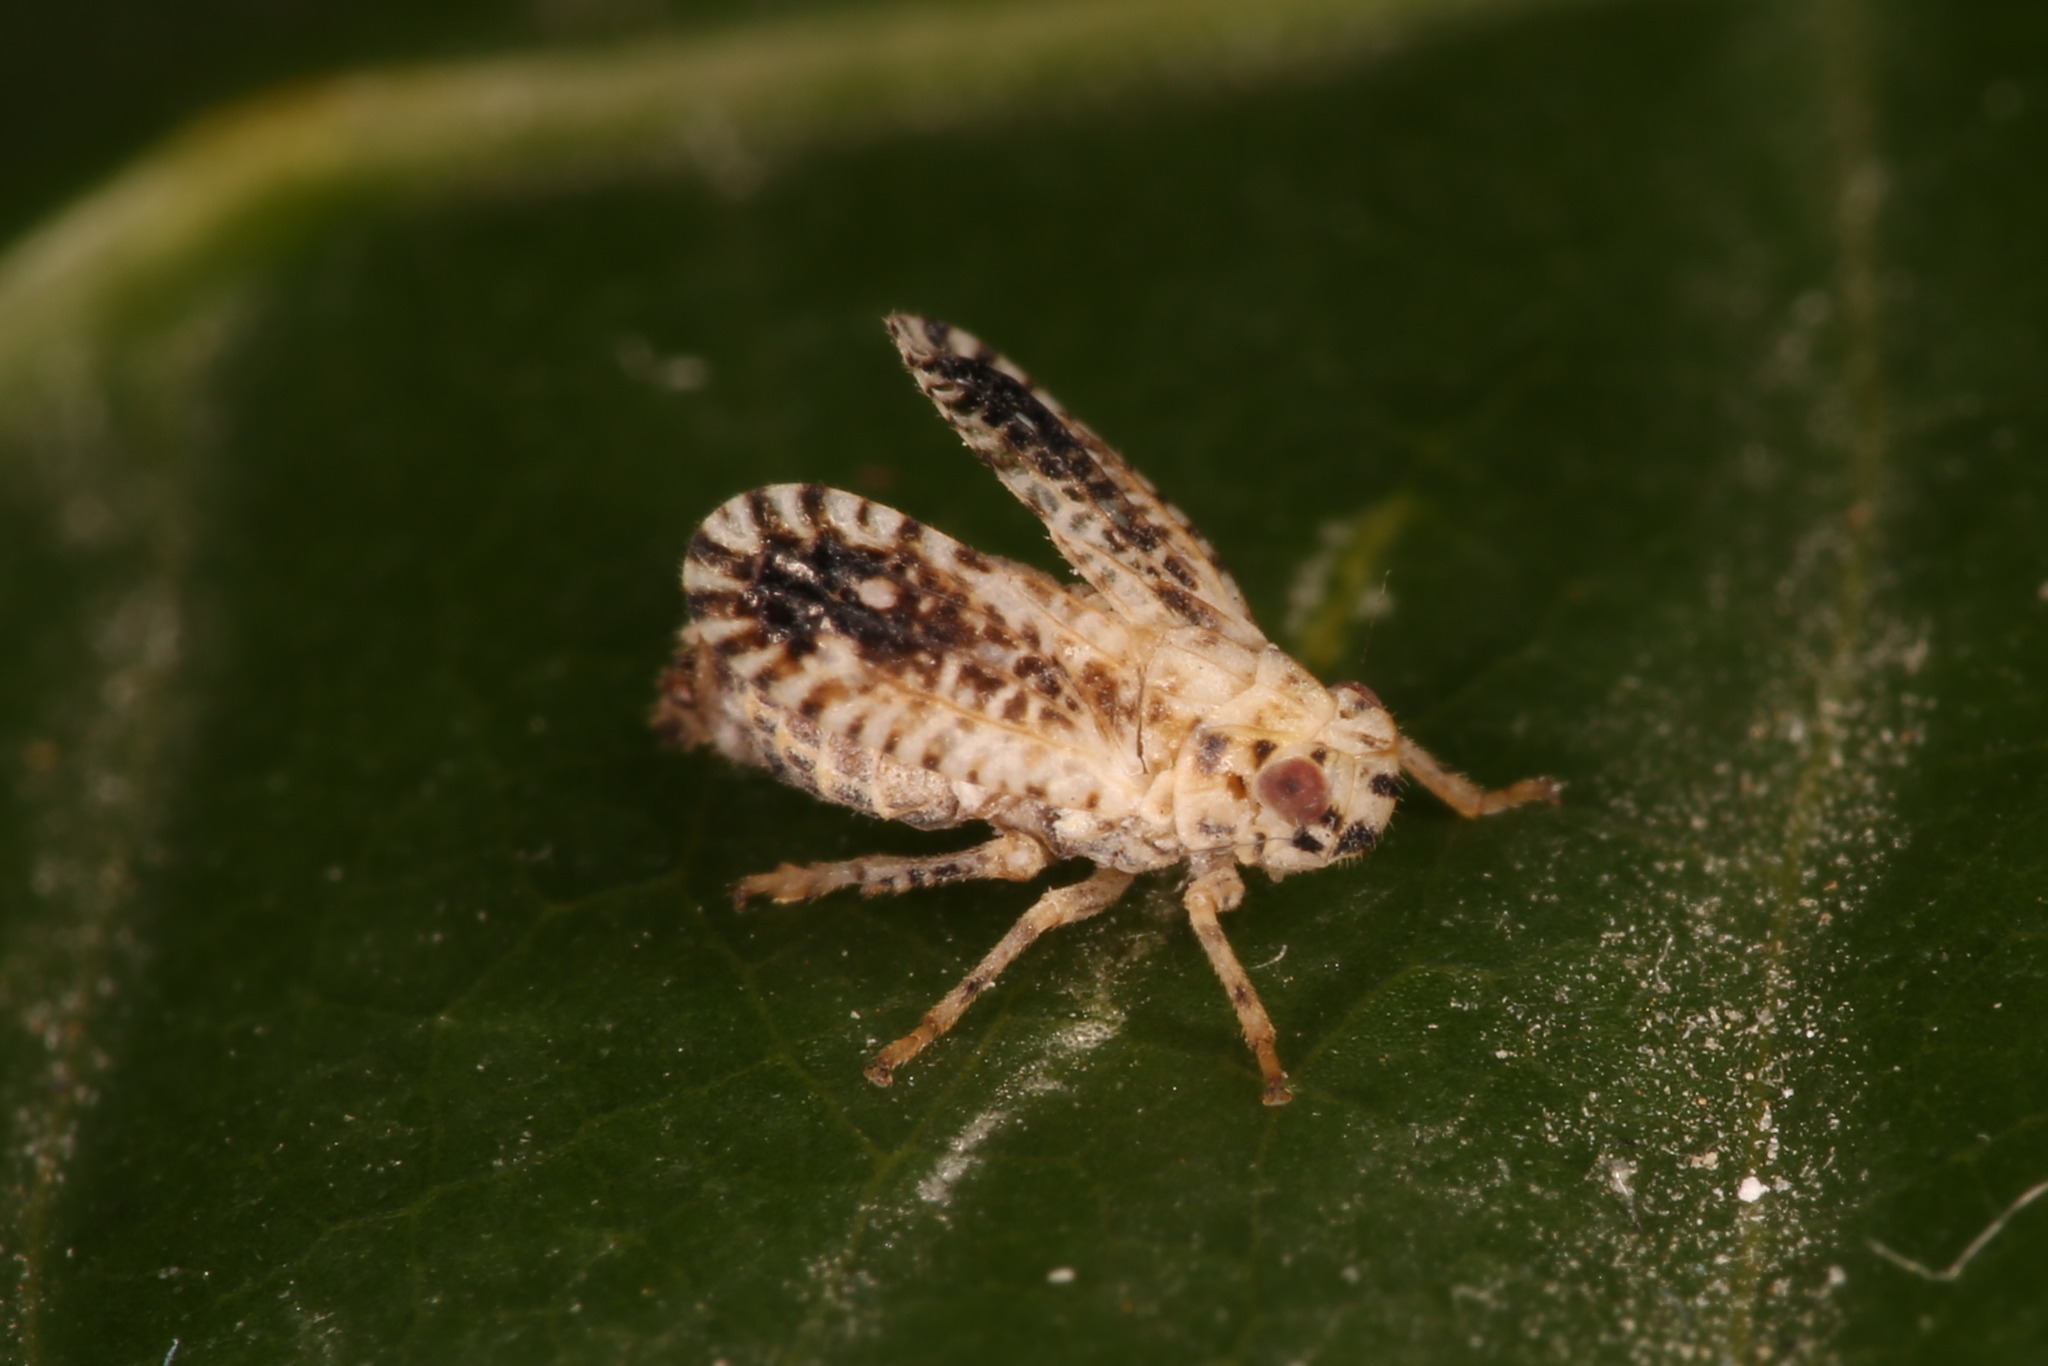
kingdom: Animalia
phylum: Arthropoda
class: Insecta
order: Hemiptera
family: Tropiduchidae
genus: Trypetimorpha
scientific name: Trypetimorpha occidentalis
